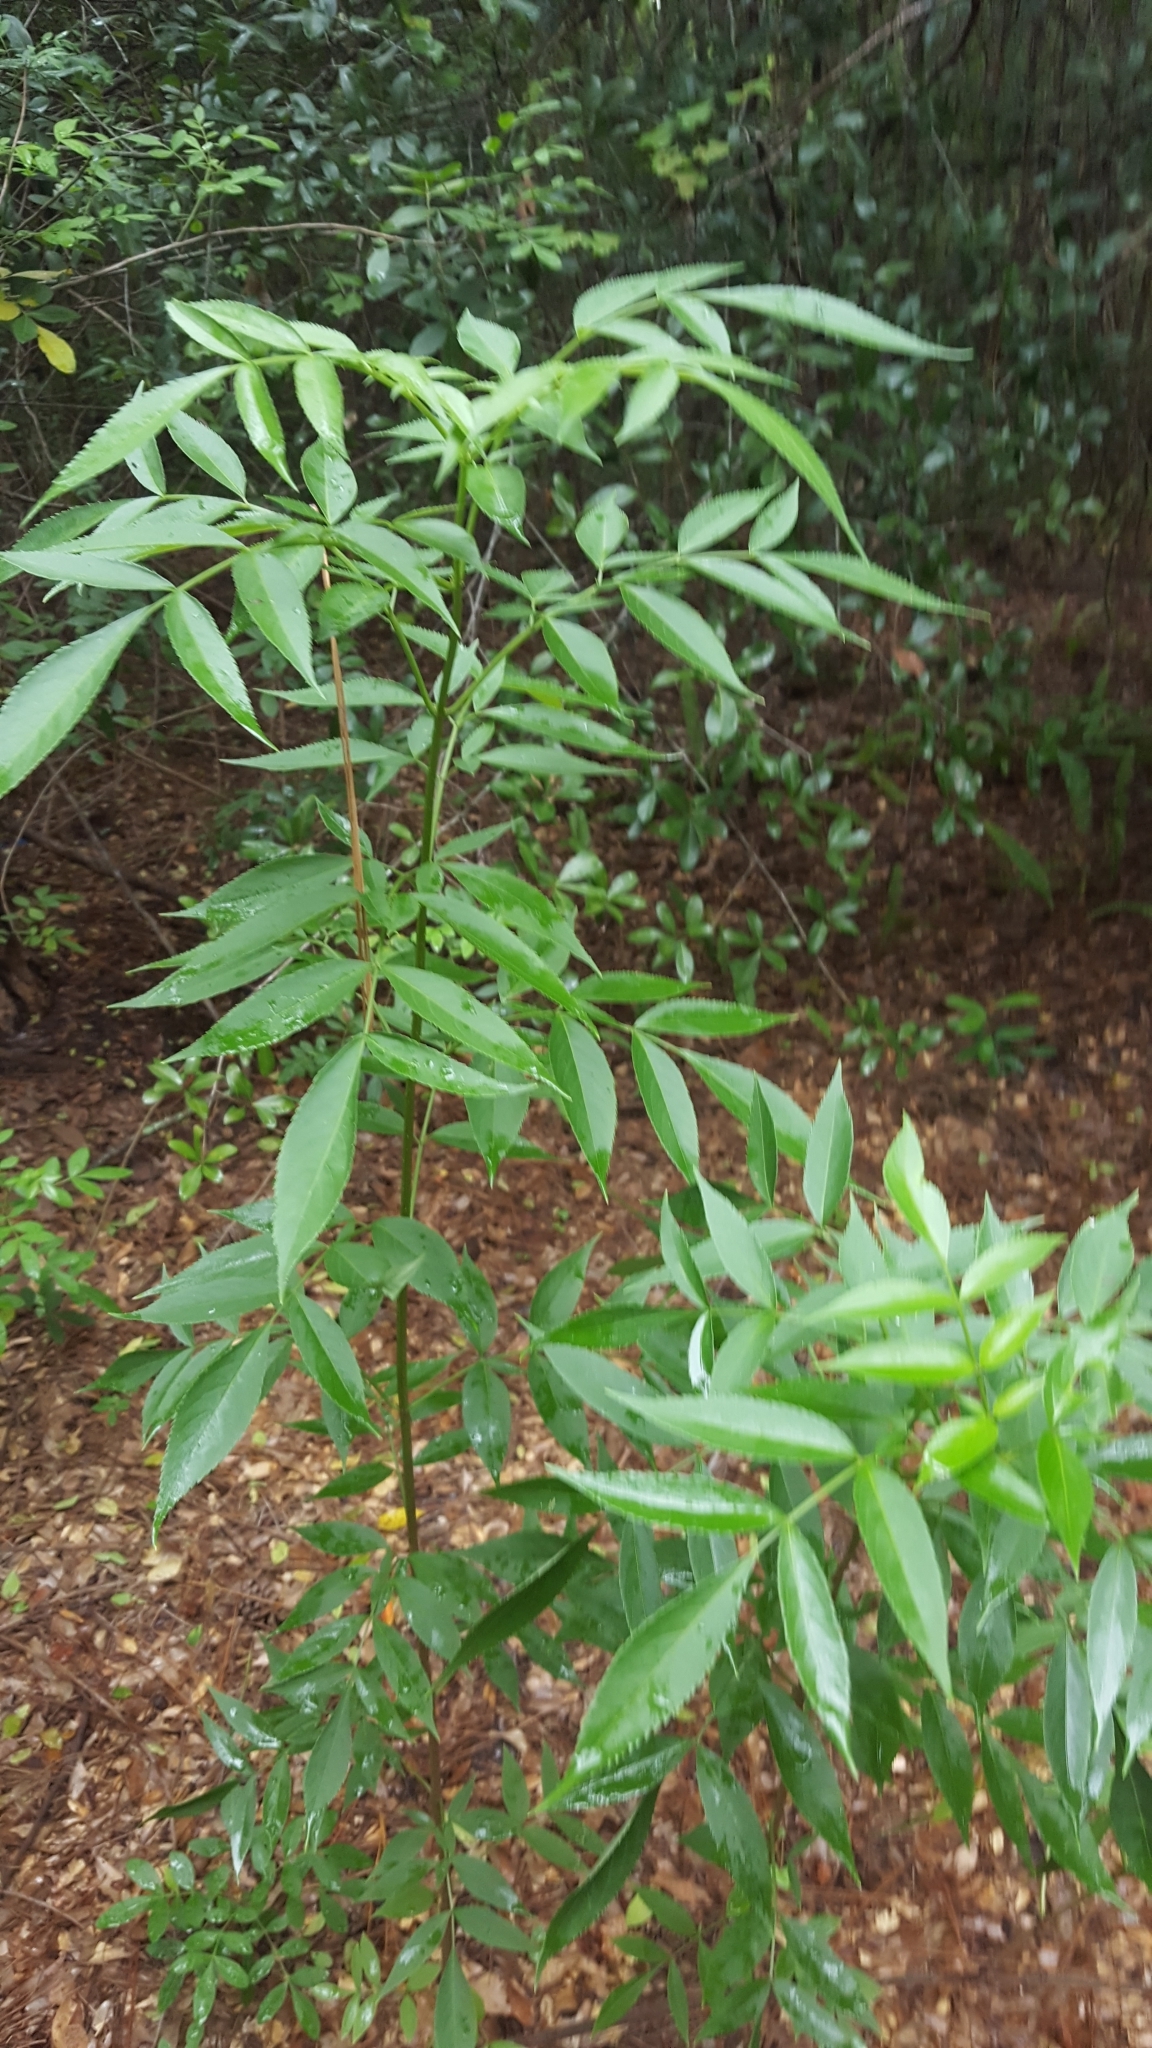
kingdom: Plantae
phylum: Tracheophyta
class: Magnoliopsida
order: Dipsacales
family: Viburnaceae
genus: Sambucus
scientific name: Sambucus canadensis
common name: American elder
